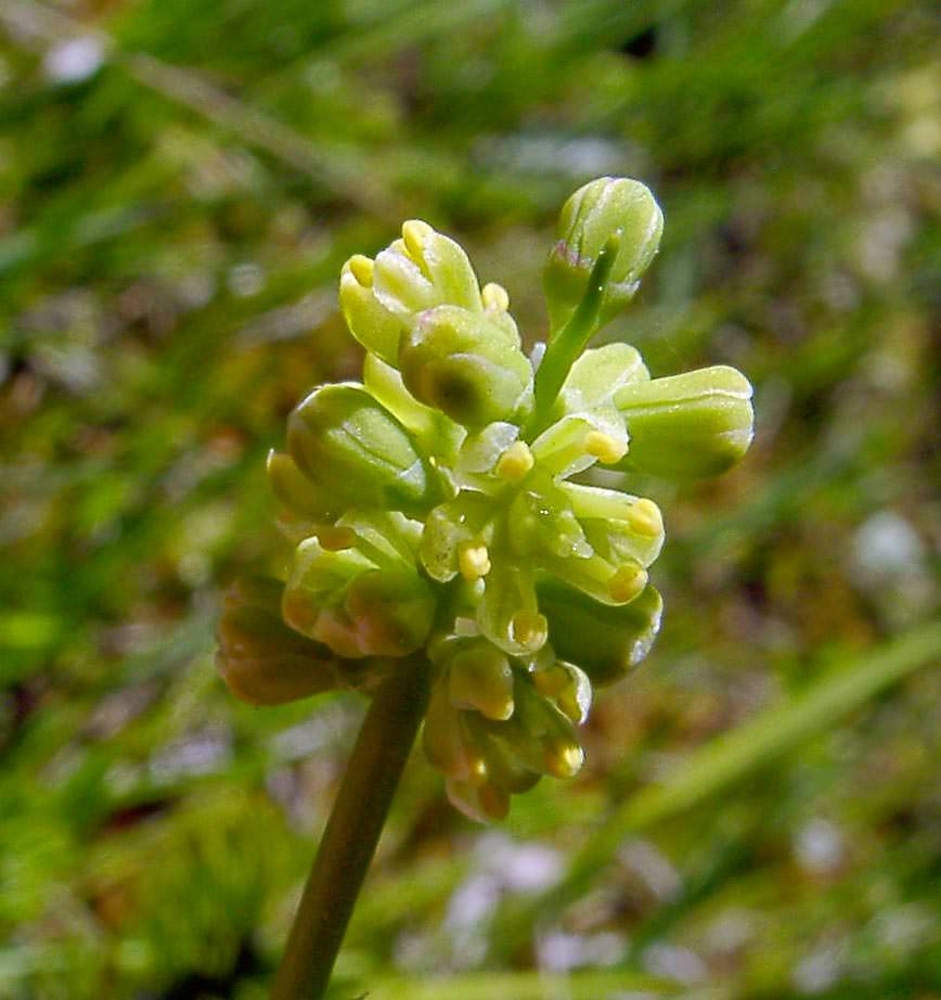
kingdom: Plantae
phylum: Tracheophyta
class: Liliopsida
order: Alismatales
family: Tofieldiaceae
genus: Tofieldia
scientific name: Tofieldia calyculata
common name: German-asphodel
